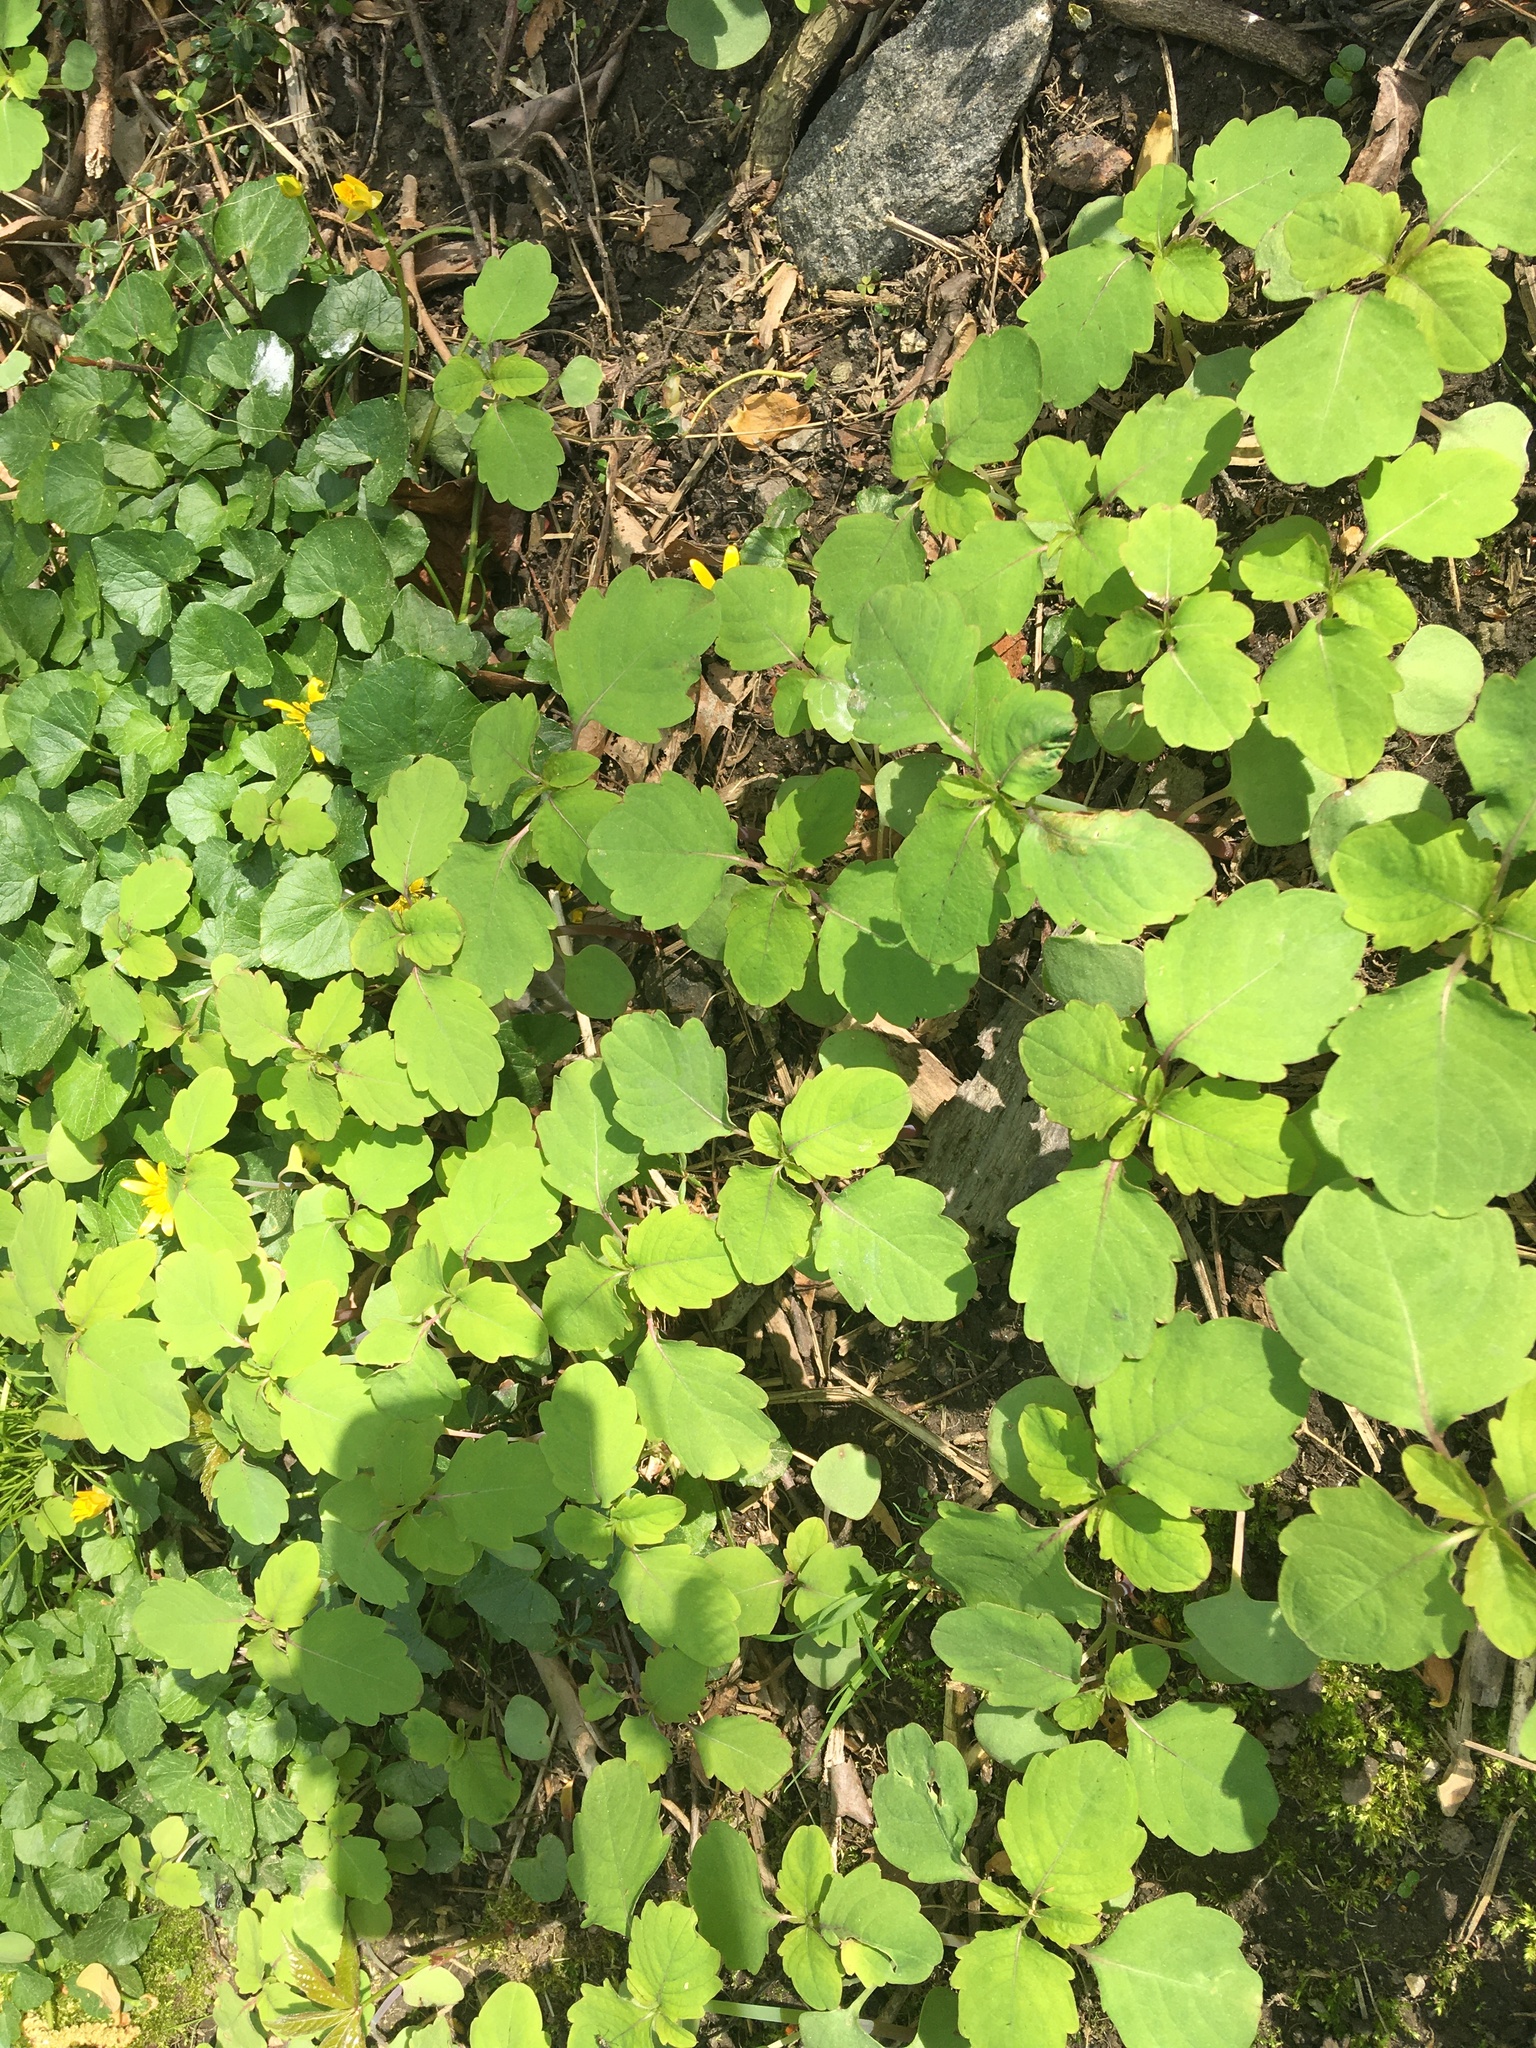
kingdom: Plantae
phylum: Tracheophyta
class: Magnoliopsida
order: Ericales
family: Balsaminaceae
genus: Impatiens
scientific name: Impatiens capensis
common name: Orange balsam
